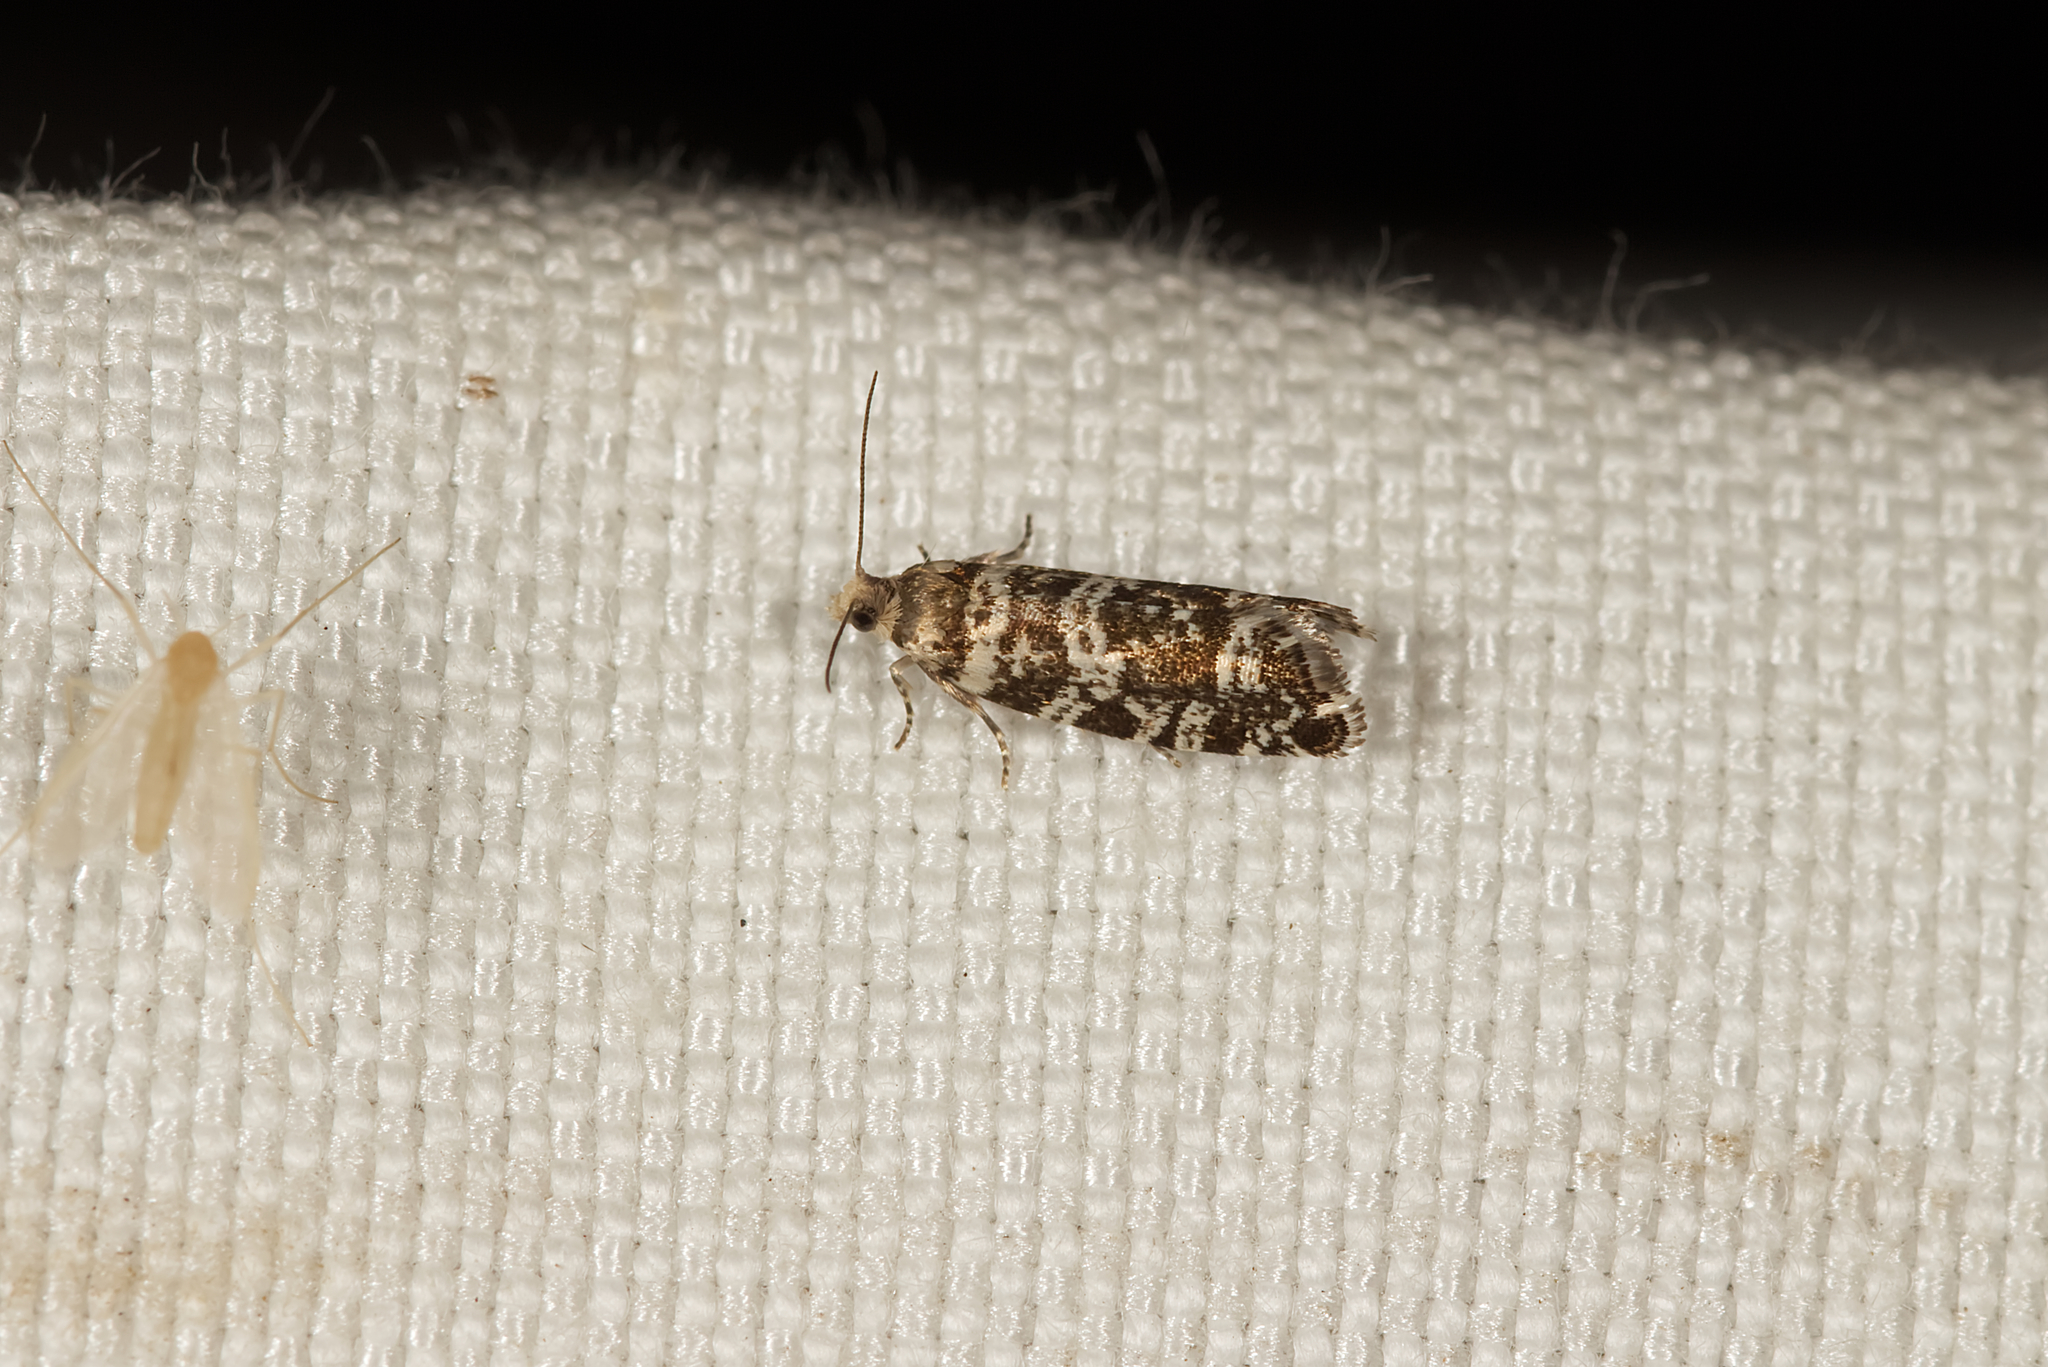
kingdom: Animalia
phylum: Arthropoda
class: Insecta
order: Lepidoptera
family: Tortricidae
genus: Epinotia
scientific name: Epinotia tedella
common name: Common spruce bell
